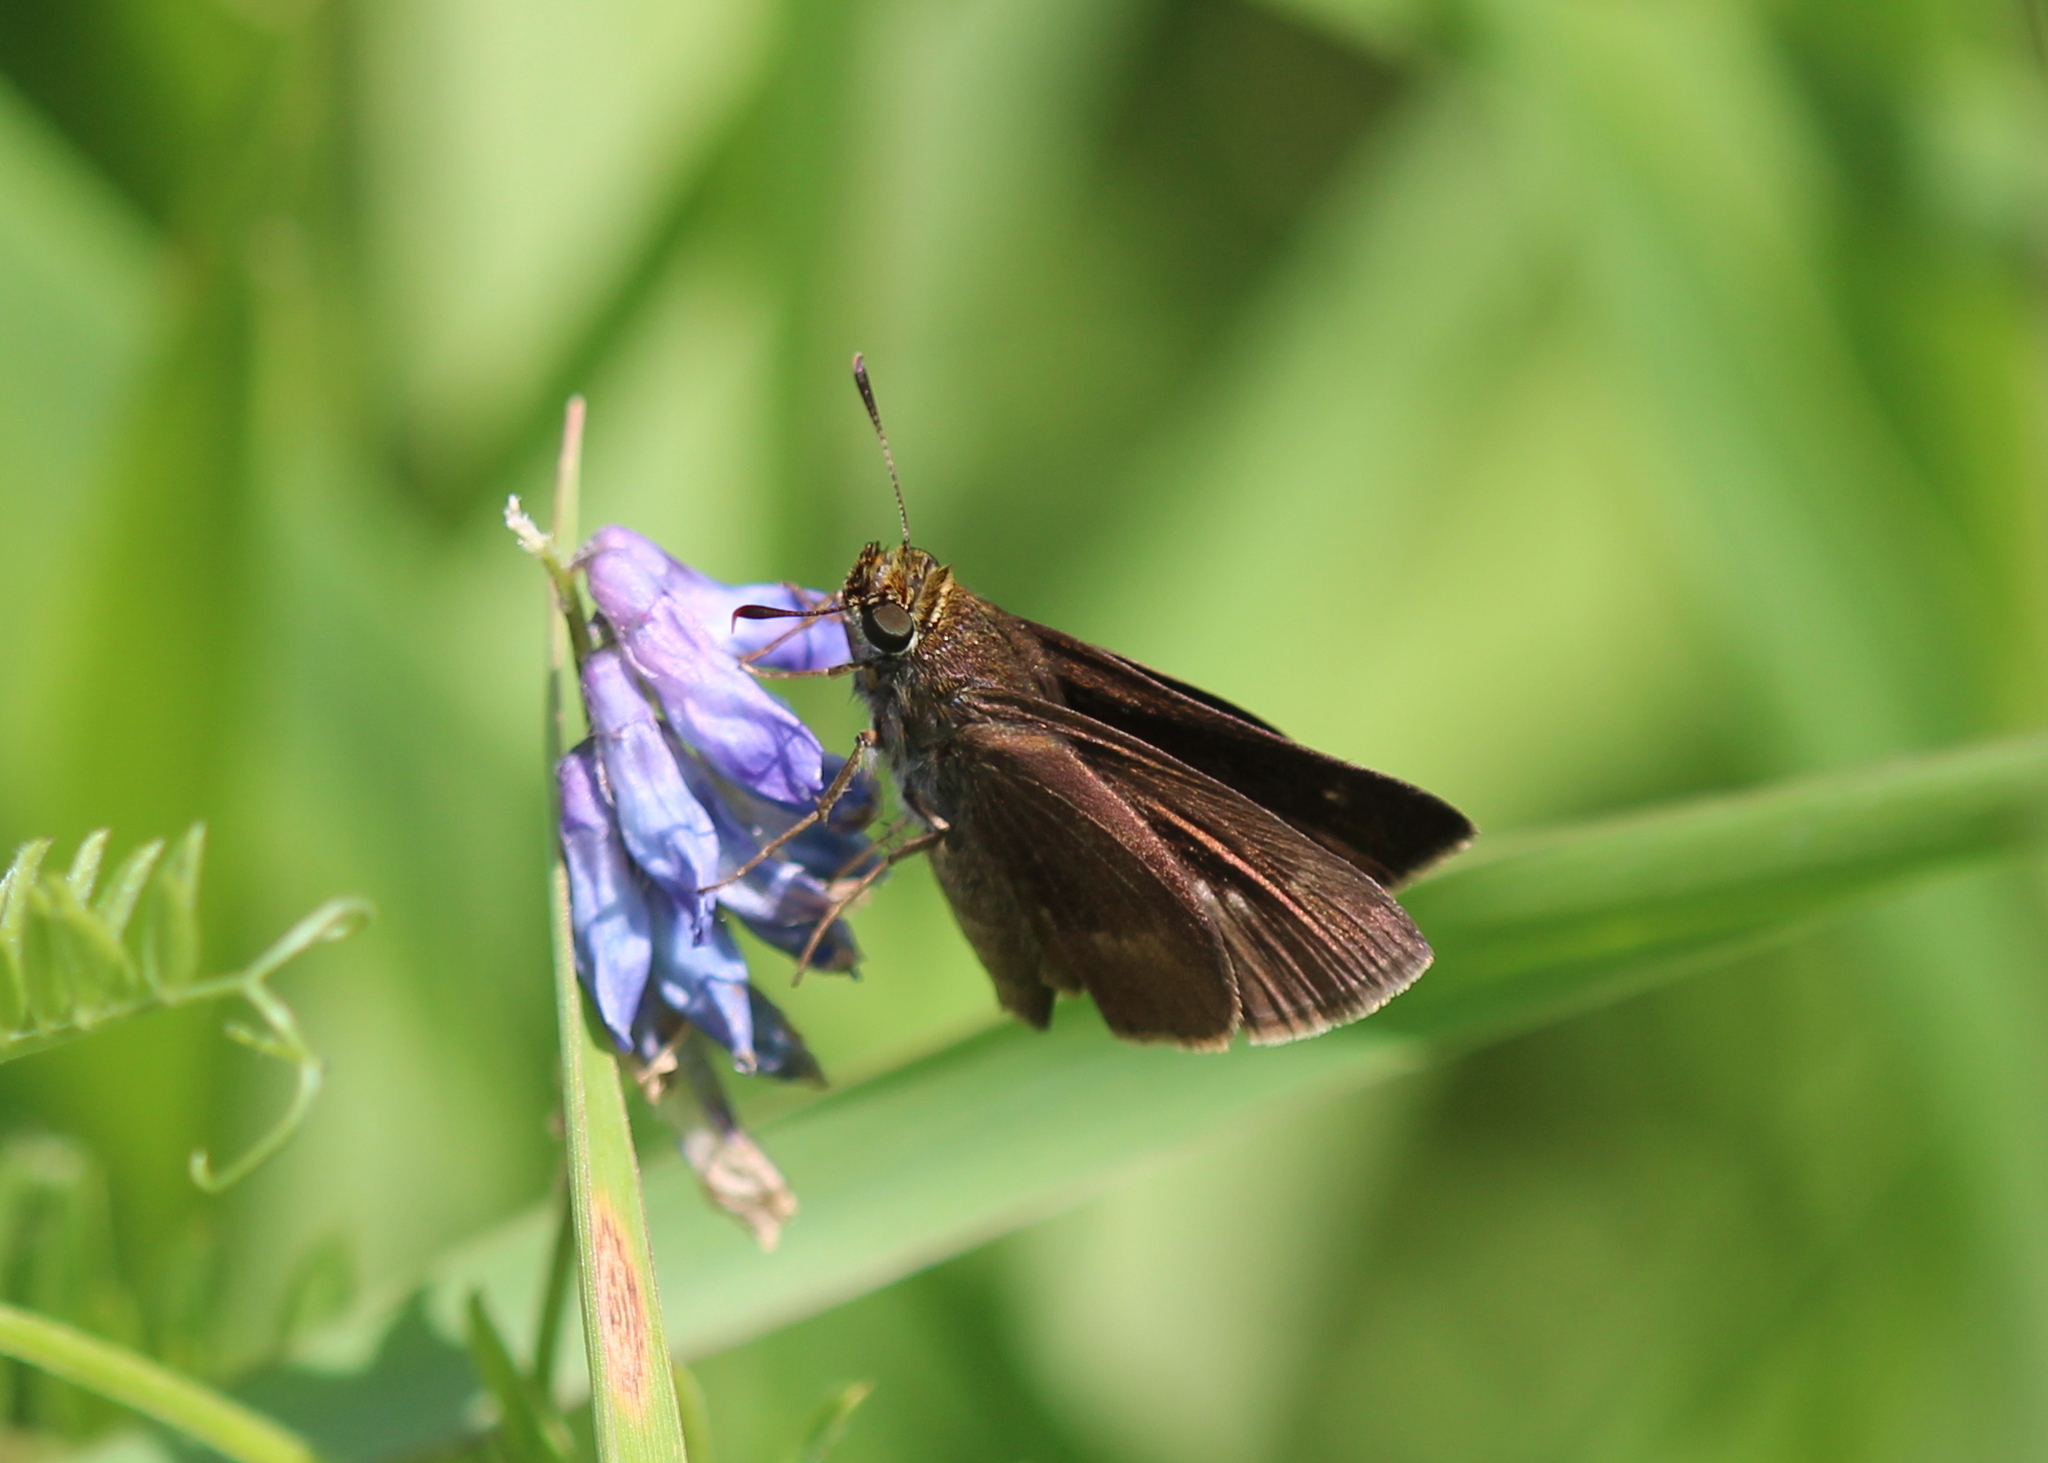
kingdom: Animalia
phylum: Arthropoda
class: Insecta
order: Lepidoptera
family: Hesperiidae
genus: Euphyes
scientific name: Euphyes vestris
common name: Dun skipper
